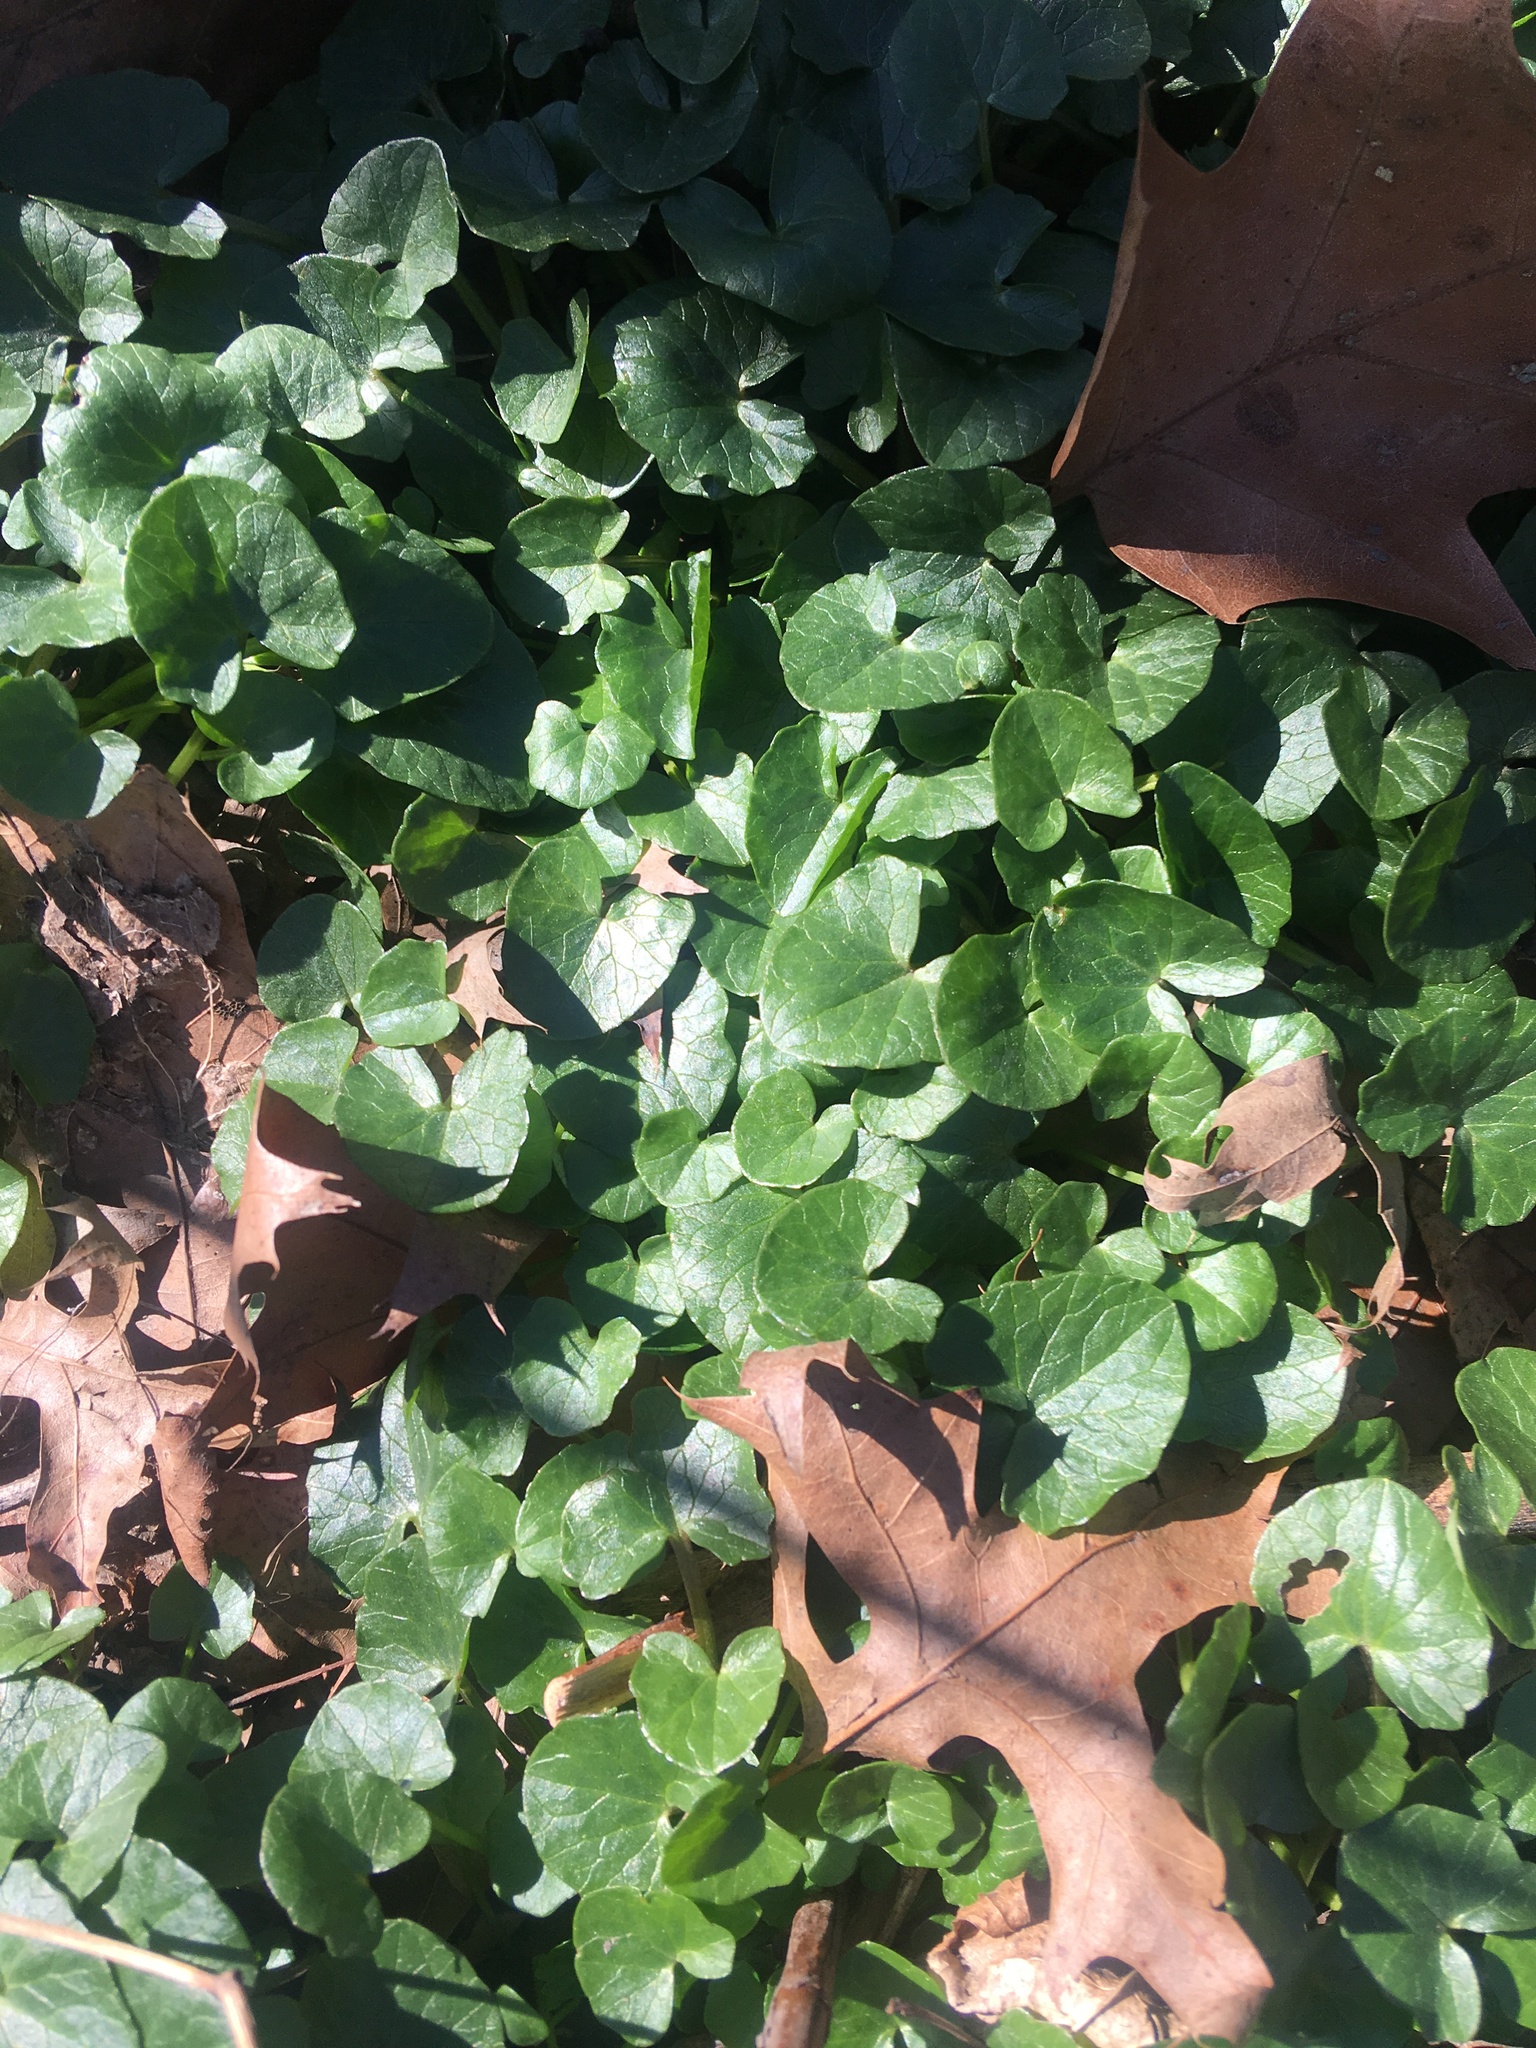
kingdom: Plantae
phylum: Tracheophyta
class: Magnoliopsida
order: Ranunculales
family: Ranunculaceae
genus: Ficaria
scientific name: Ficaria verna
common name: Lesser celandine
